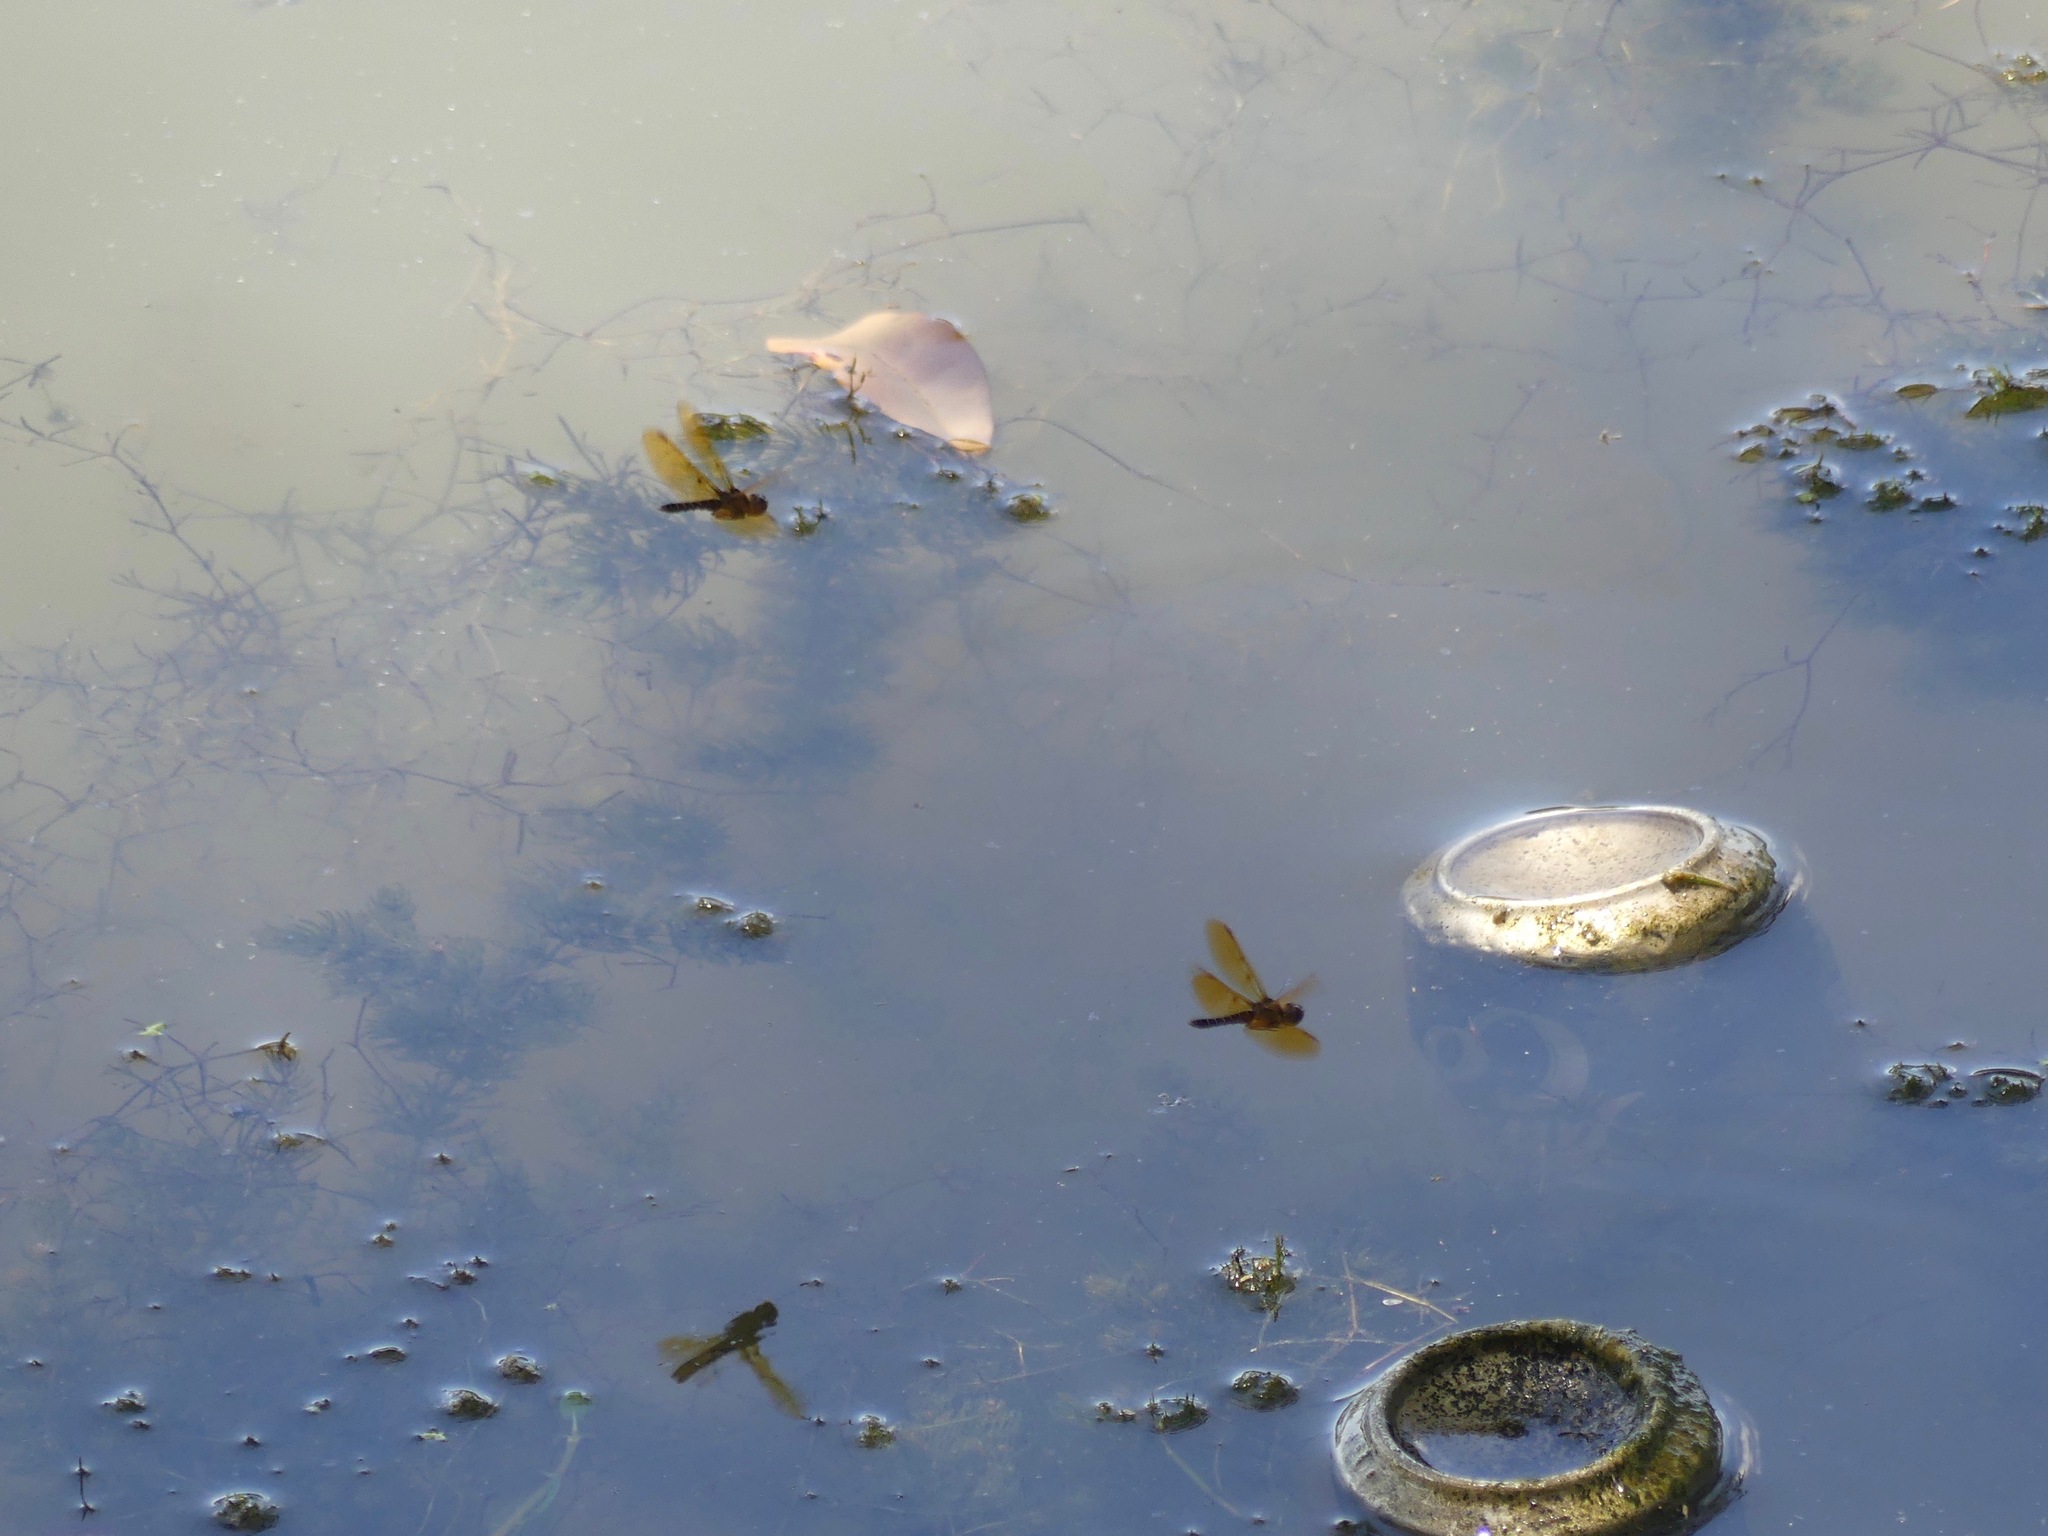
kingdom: Animalia
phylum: Arthropoda
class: Insecta
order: Odonata
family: Libellulidae
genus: Perithemis
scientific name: Perithemis tenera
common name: Eastern amberwing
